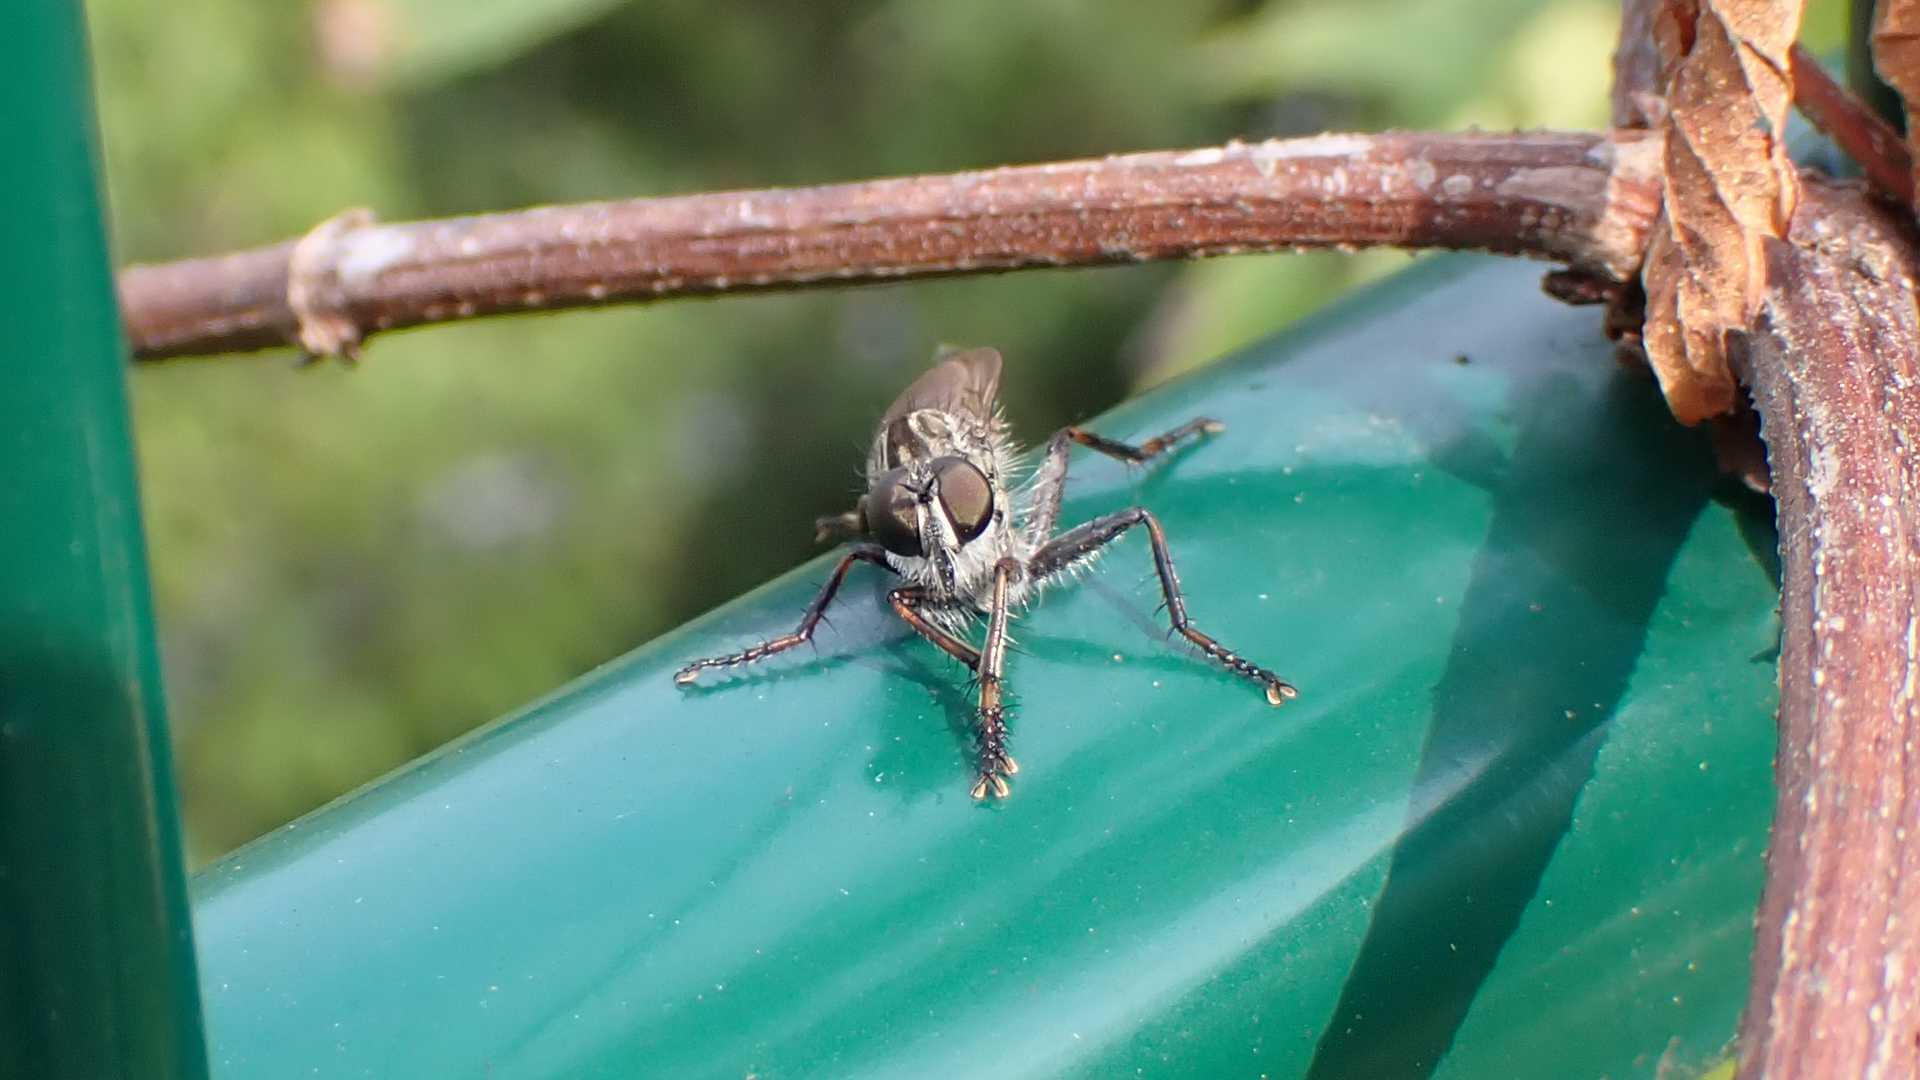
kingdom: Animalia
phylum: Arthropoda
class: Insecta
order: Diptera
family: Asilidae
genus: Machimus
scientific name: Machimus atricapillus
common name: Kite-tailed robberfly
